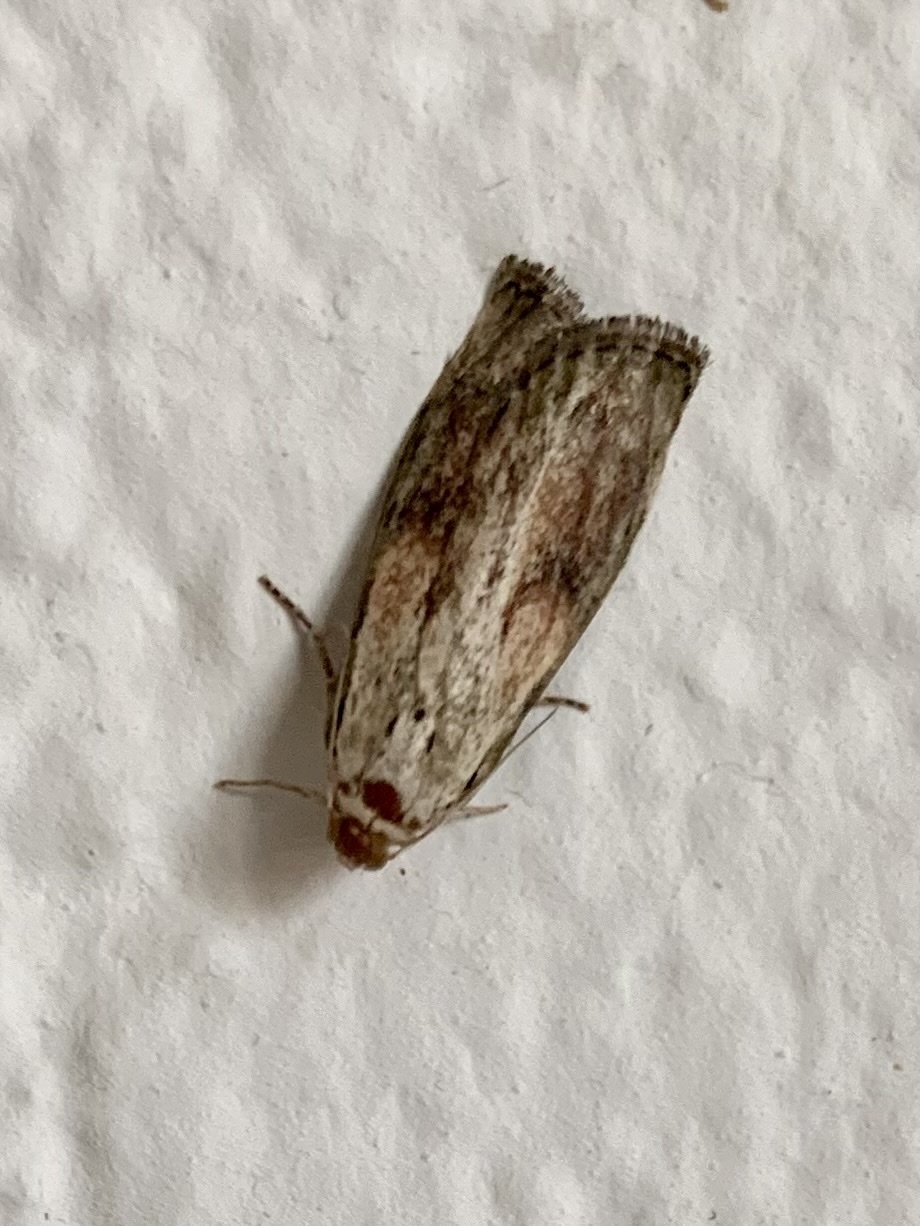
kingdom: Animalia
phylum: Arthropoda
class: Insecta
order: Lepidoptera
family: Pyralidae
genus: Aphomia
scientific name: Aphomia sociella
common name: Bee moth
